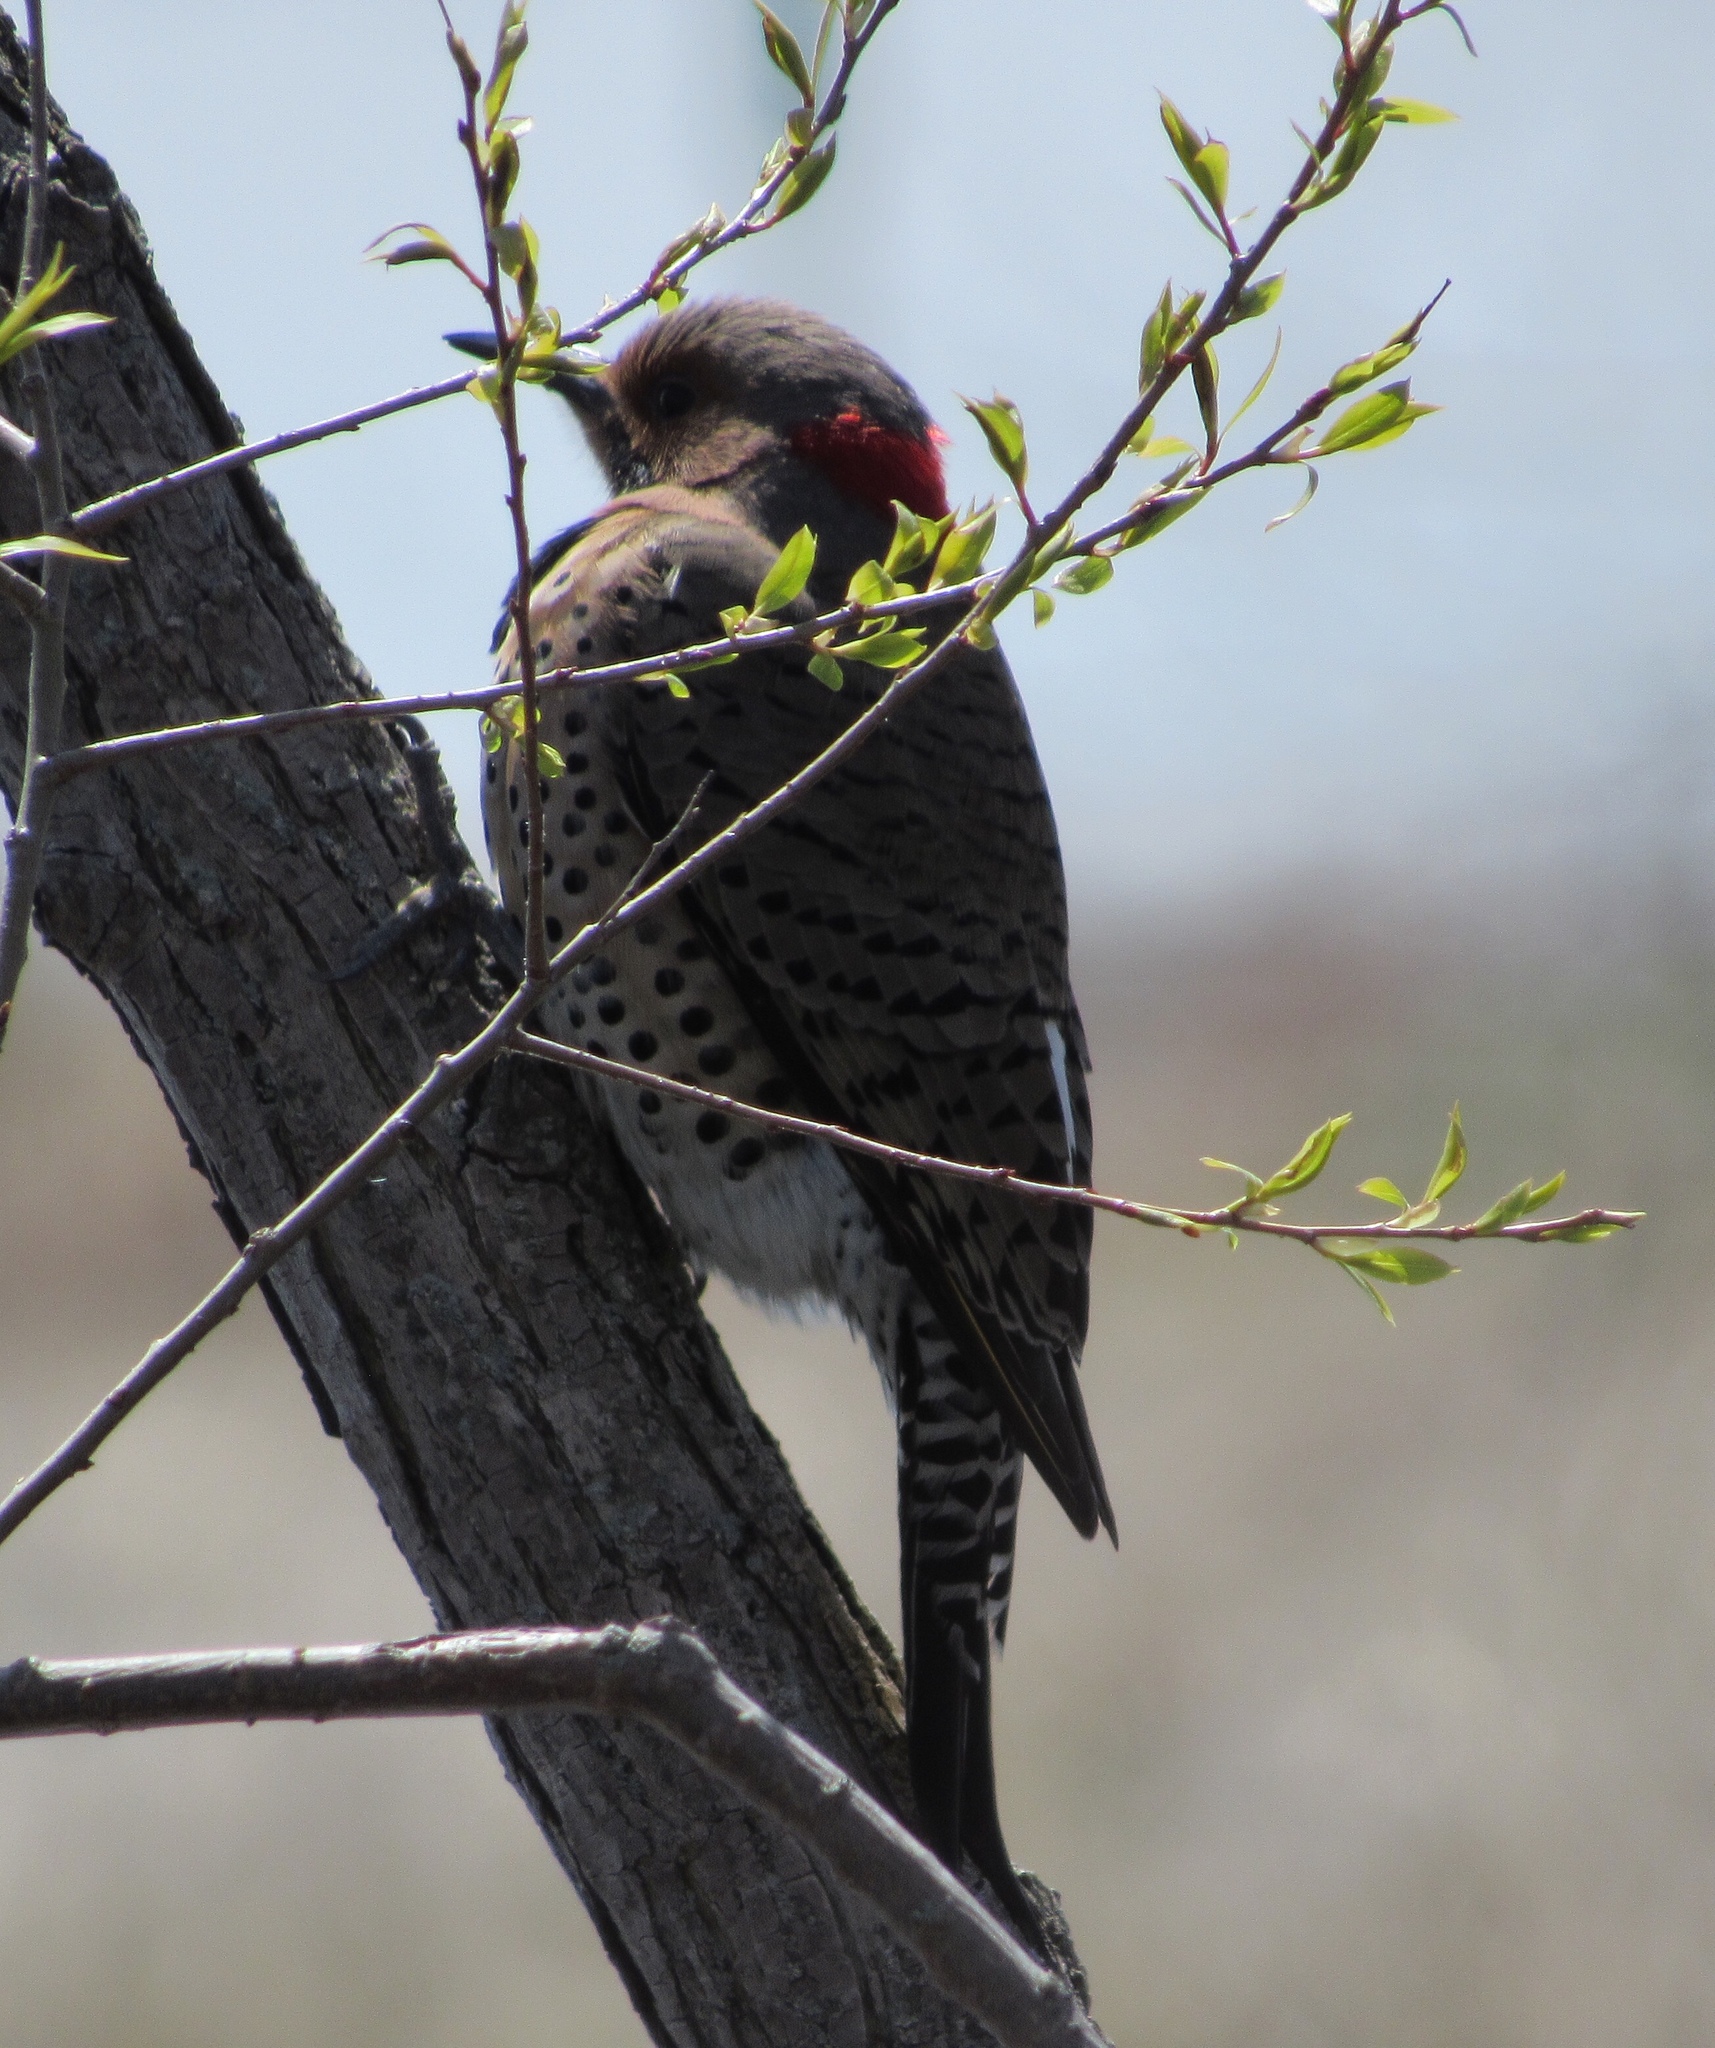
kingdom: Animalia
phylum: Chordata
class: Aves
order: Piciformes
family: Picidae
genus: Colaptes
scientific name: Colaptes auratus
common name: Northern flicker
